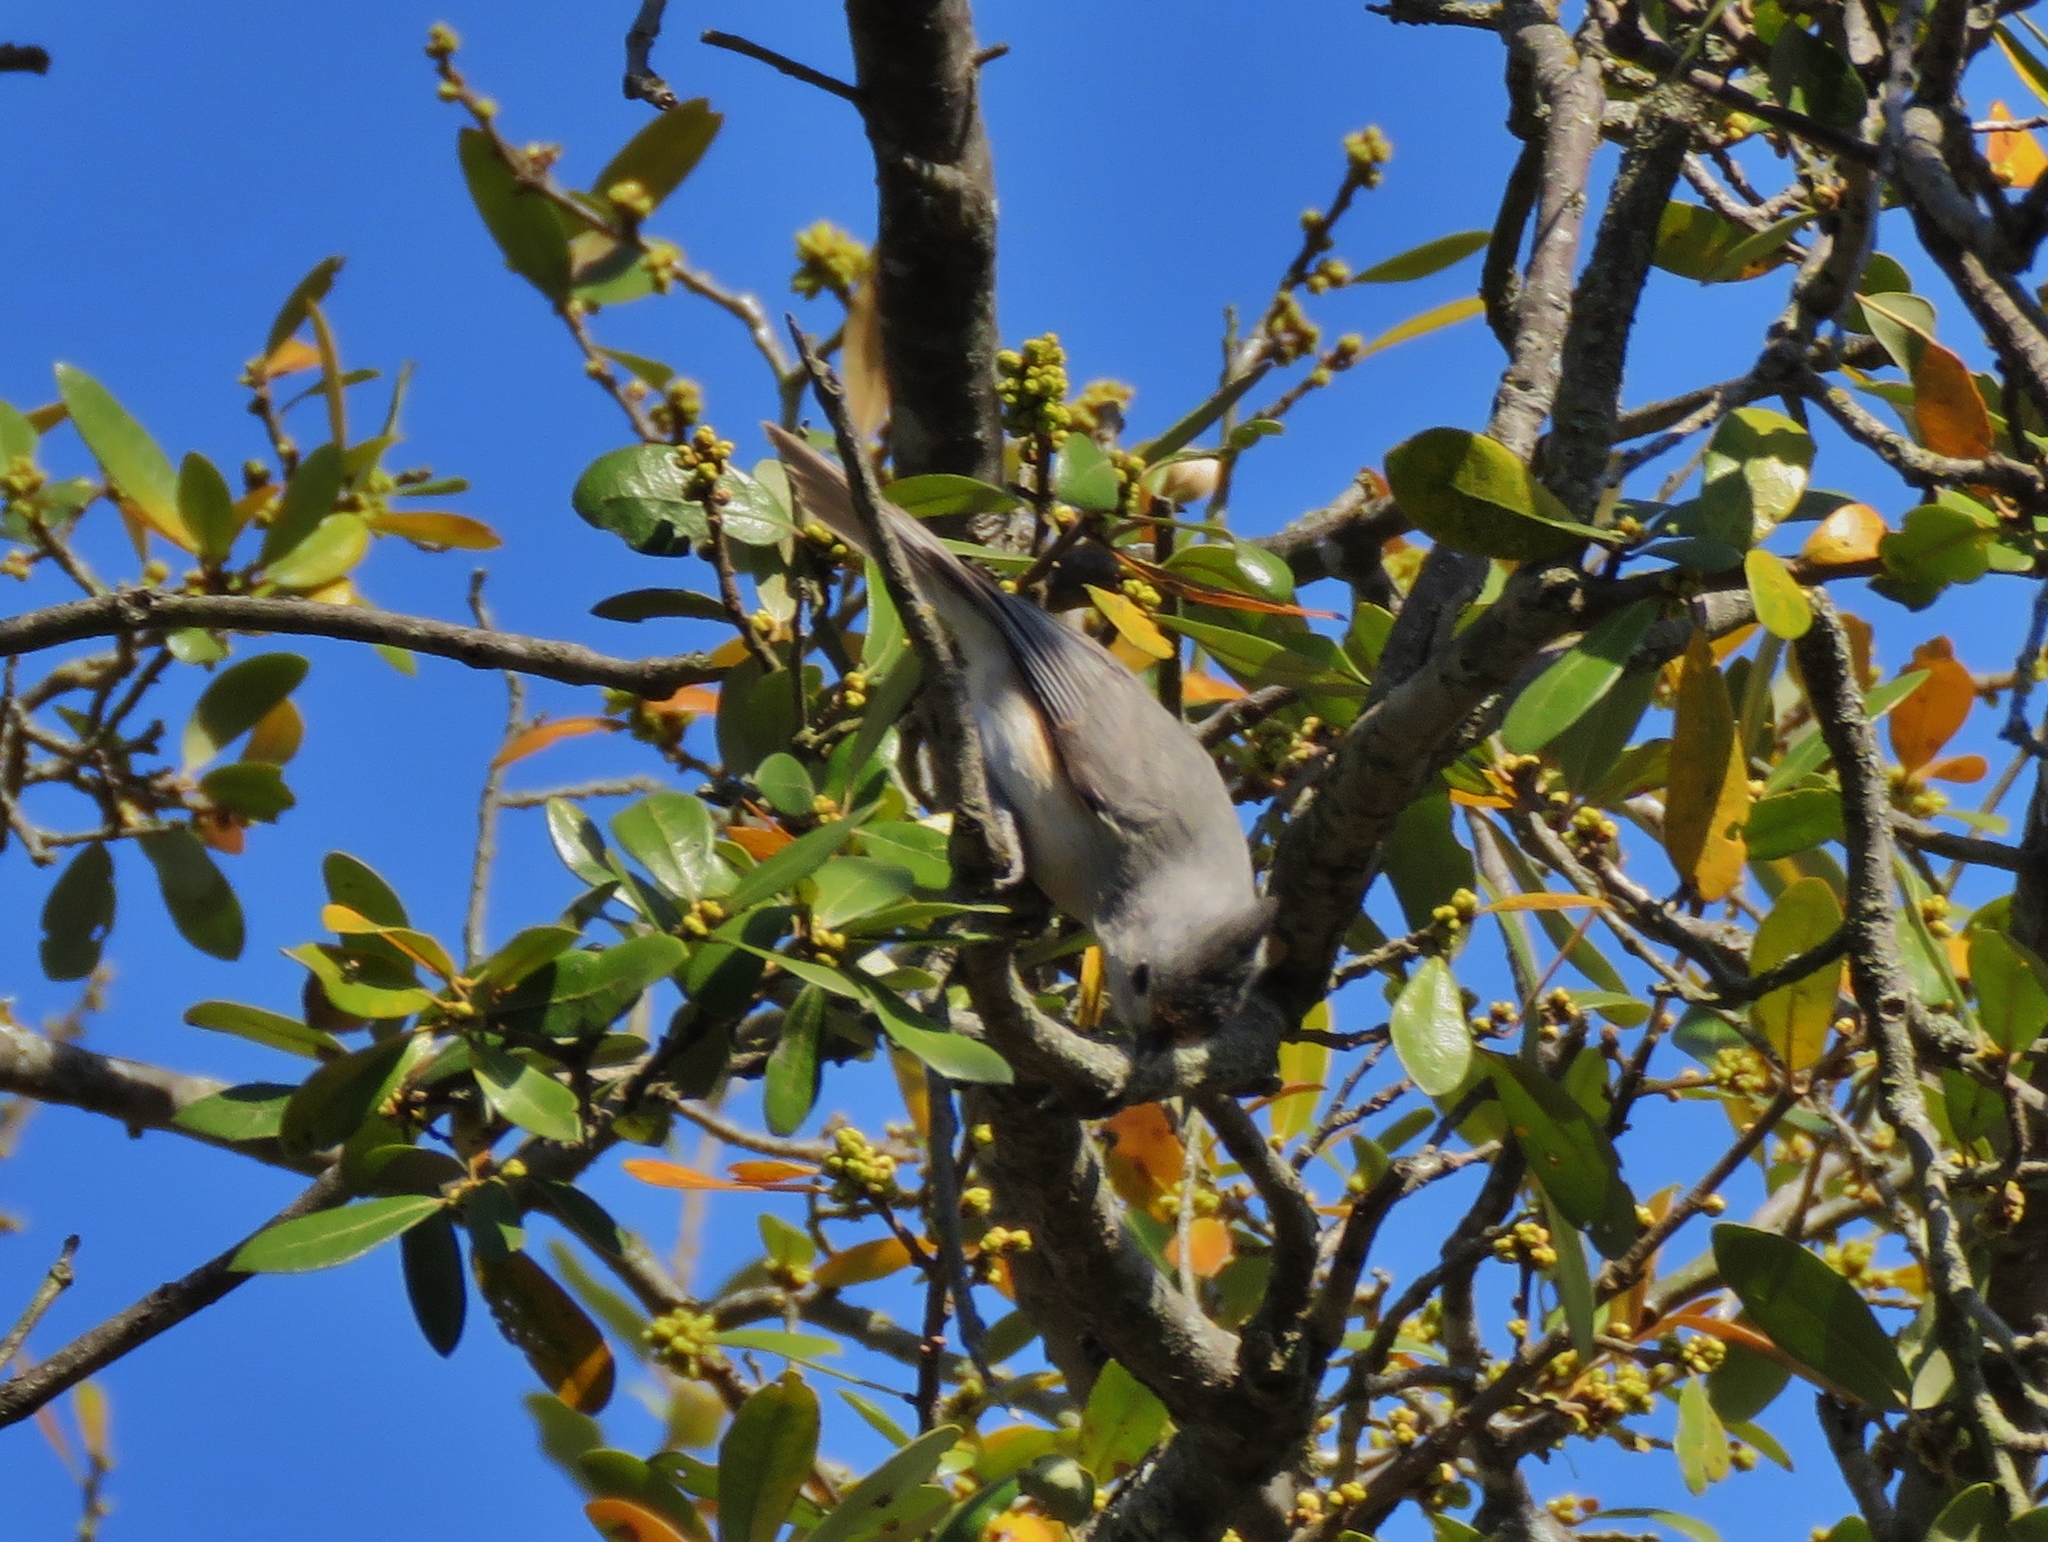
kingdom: Animalia
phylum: Chordata
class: Aves
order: Passeriformes
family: Paridae
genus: Baeolophus
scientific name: Baeolophus
